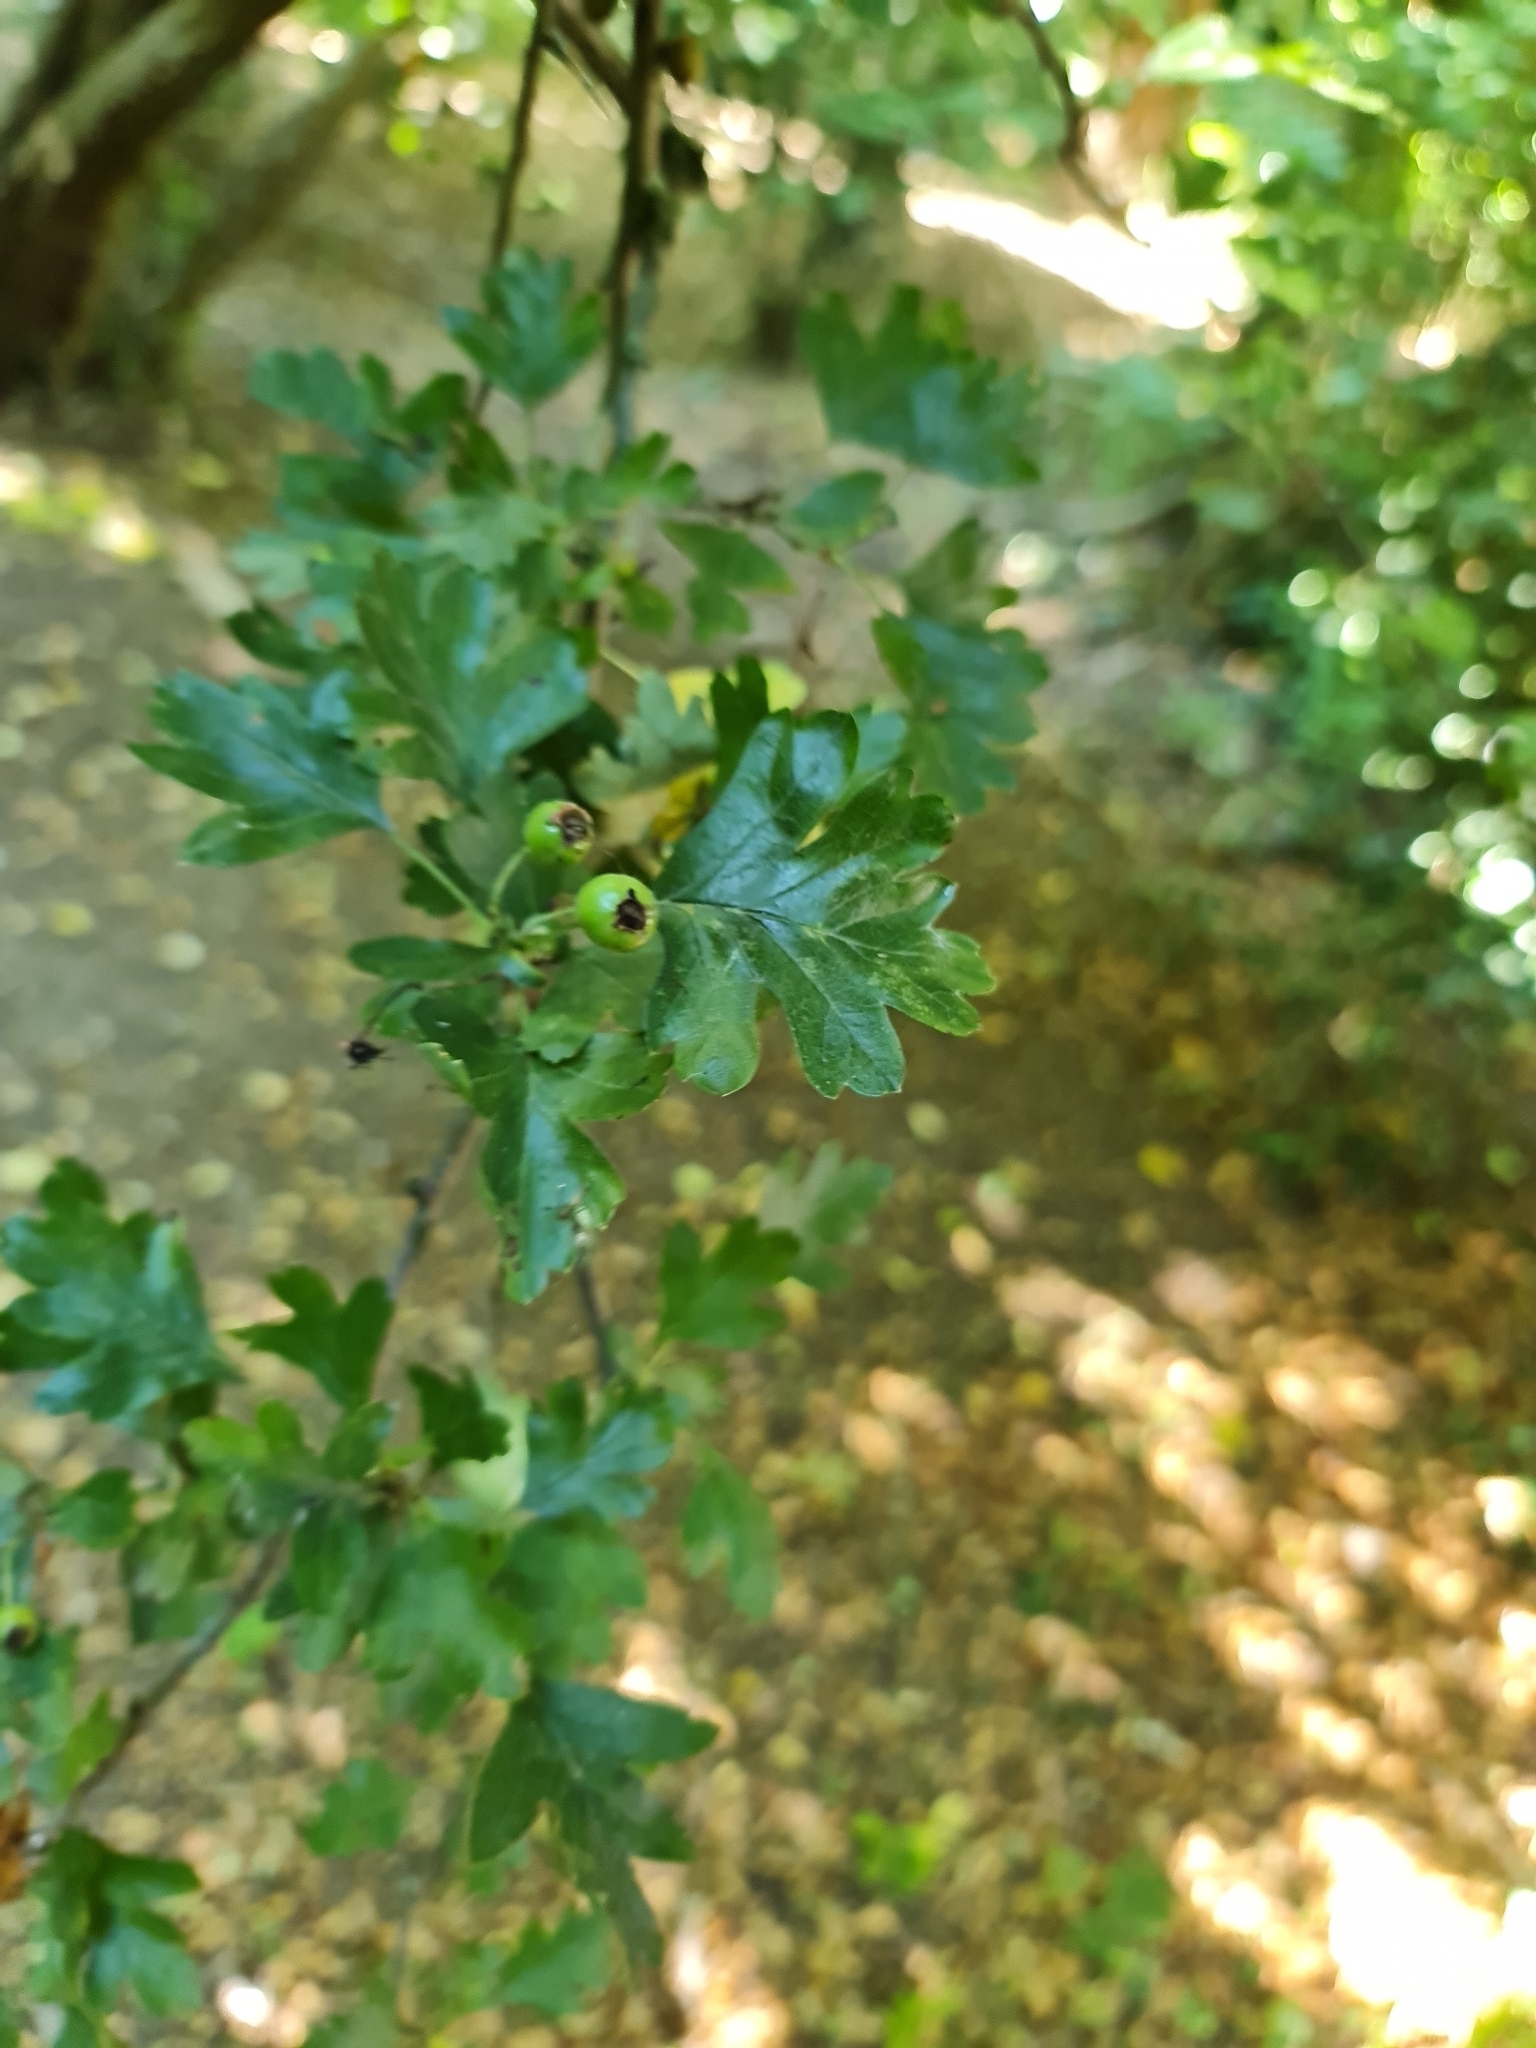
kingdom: Plantae
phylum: Tracheophyta
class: Magnoliopsida
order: Rosales
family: Rosaceae
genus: Crataegus
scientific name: Crataegus monogyna
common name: Hawthorn
